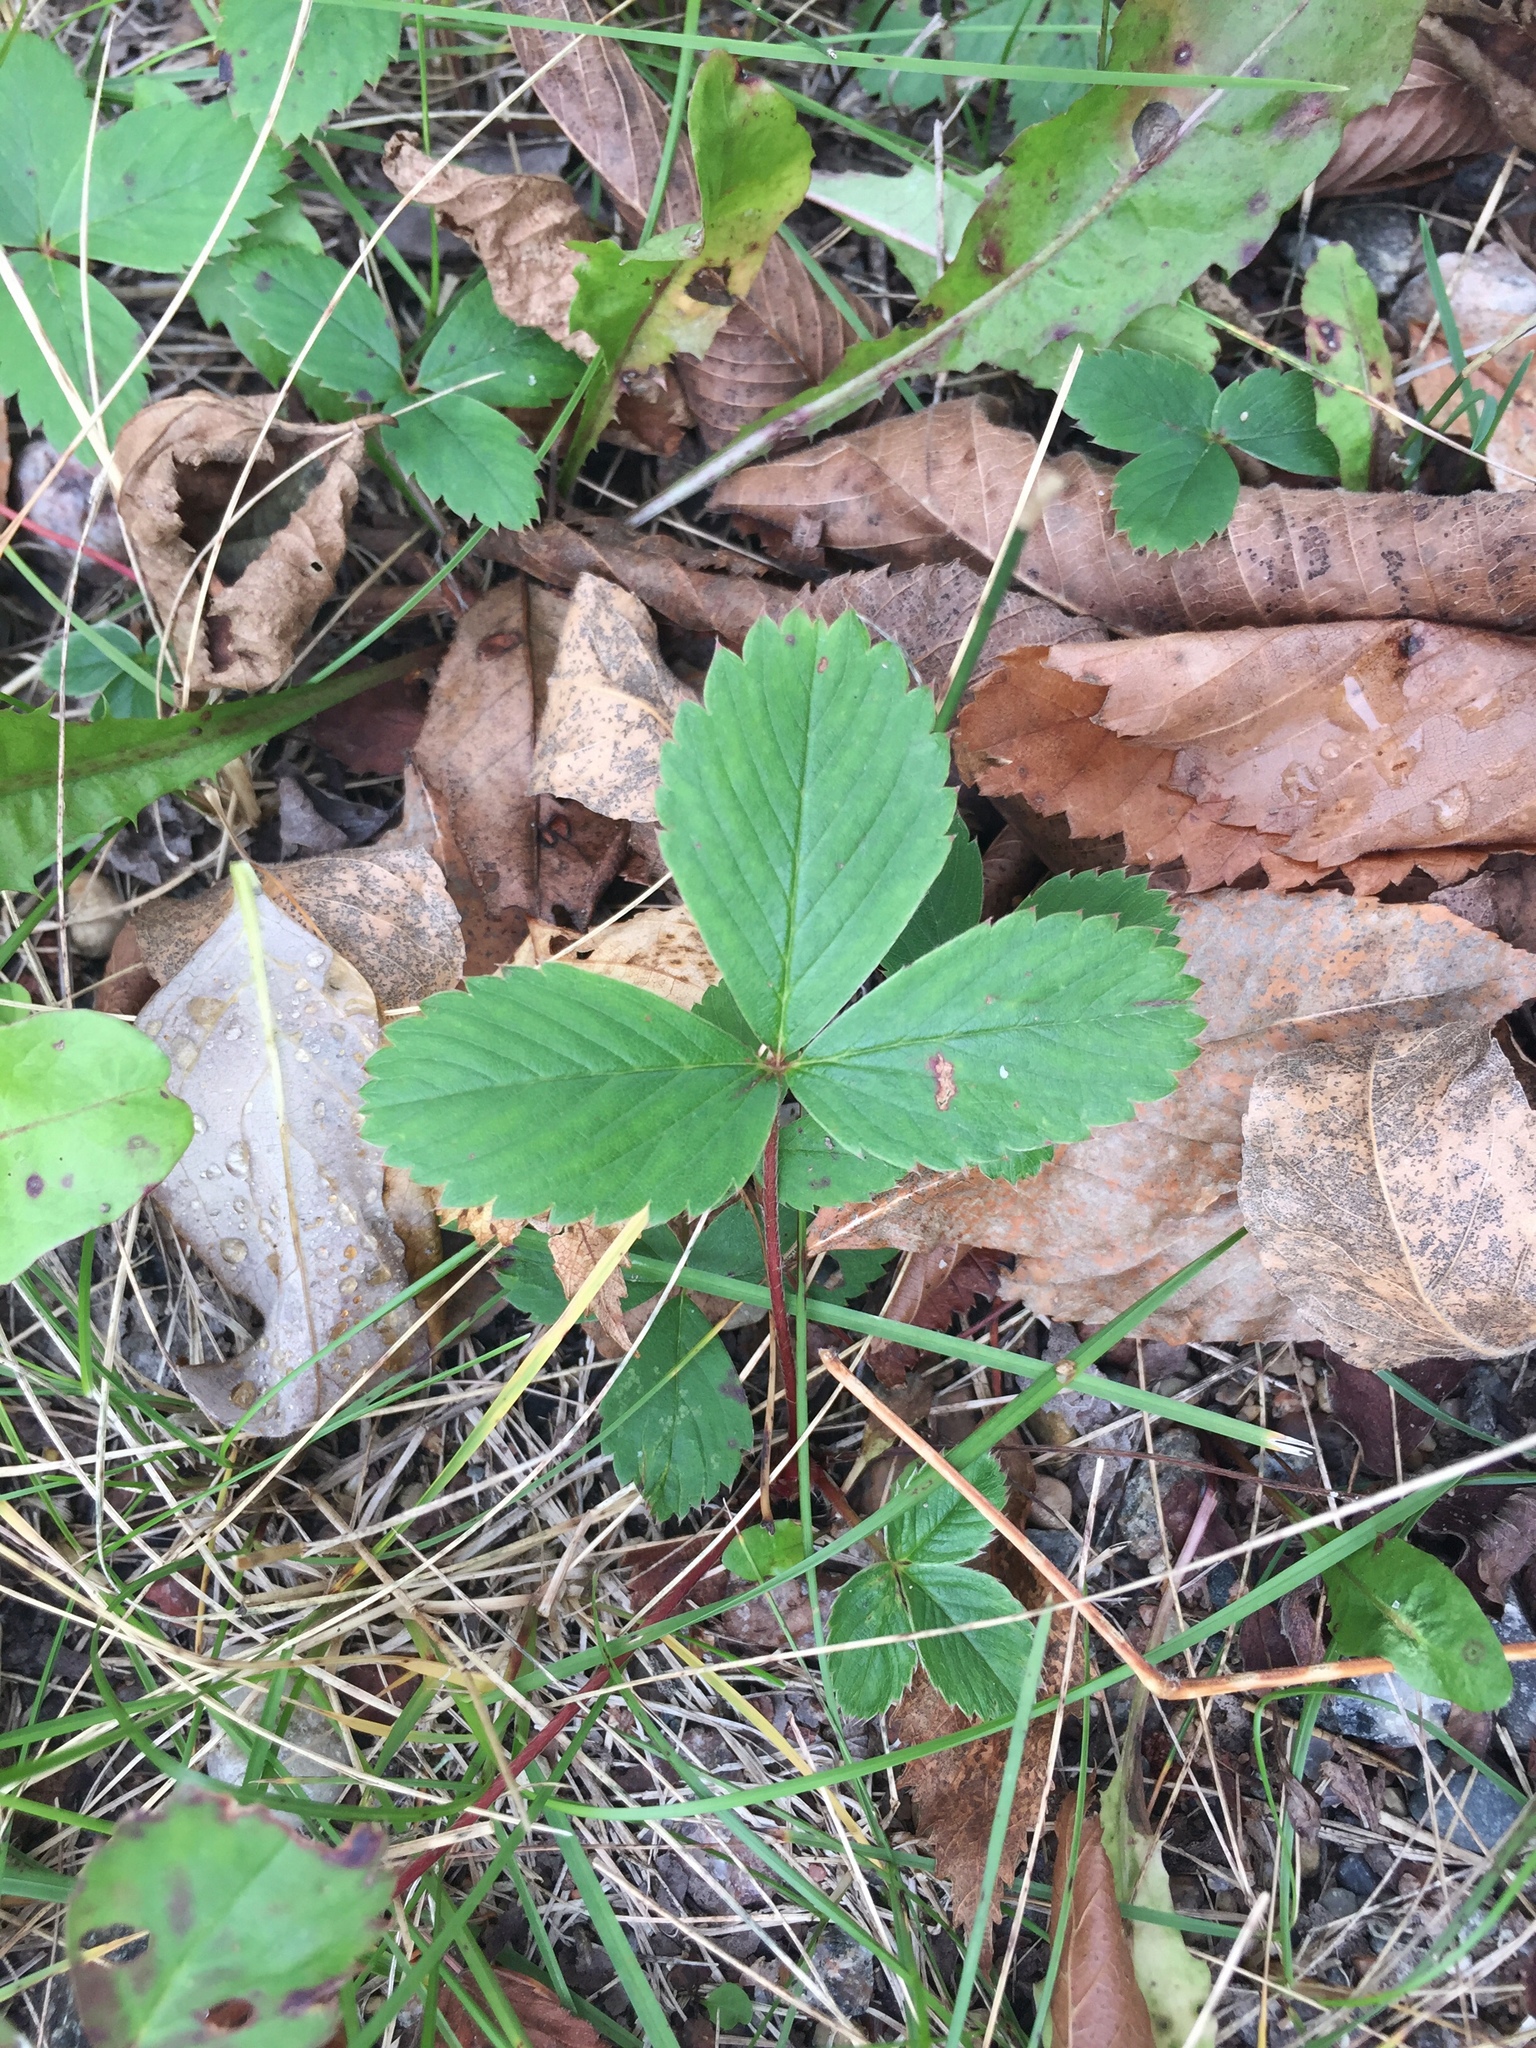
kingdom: Plantae
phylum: Tracheophyta
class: Magnoliopsida
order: Rosales
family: Rosaceae
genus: Fragaria
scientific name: Fragaria virginiana
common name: Thickleaved wild strawberry
